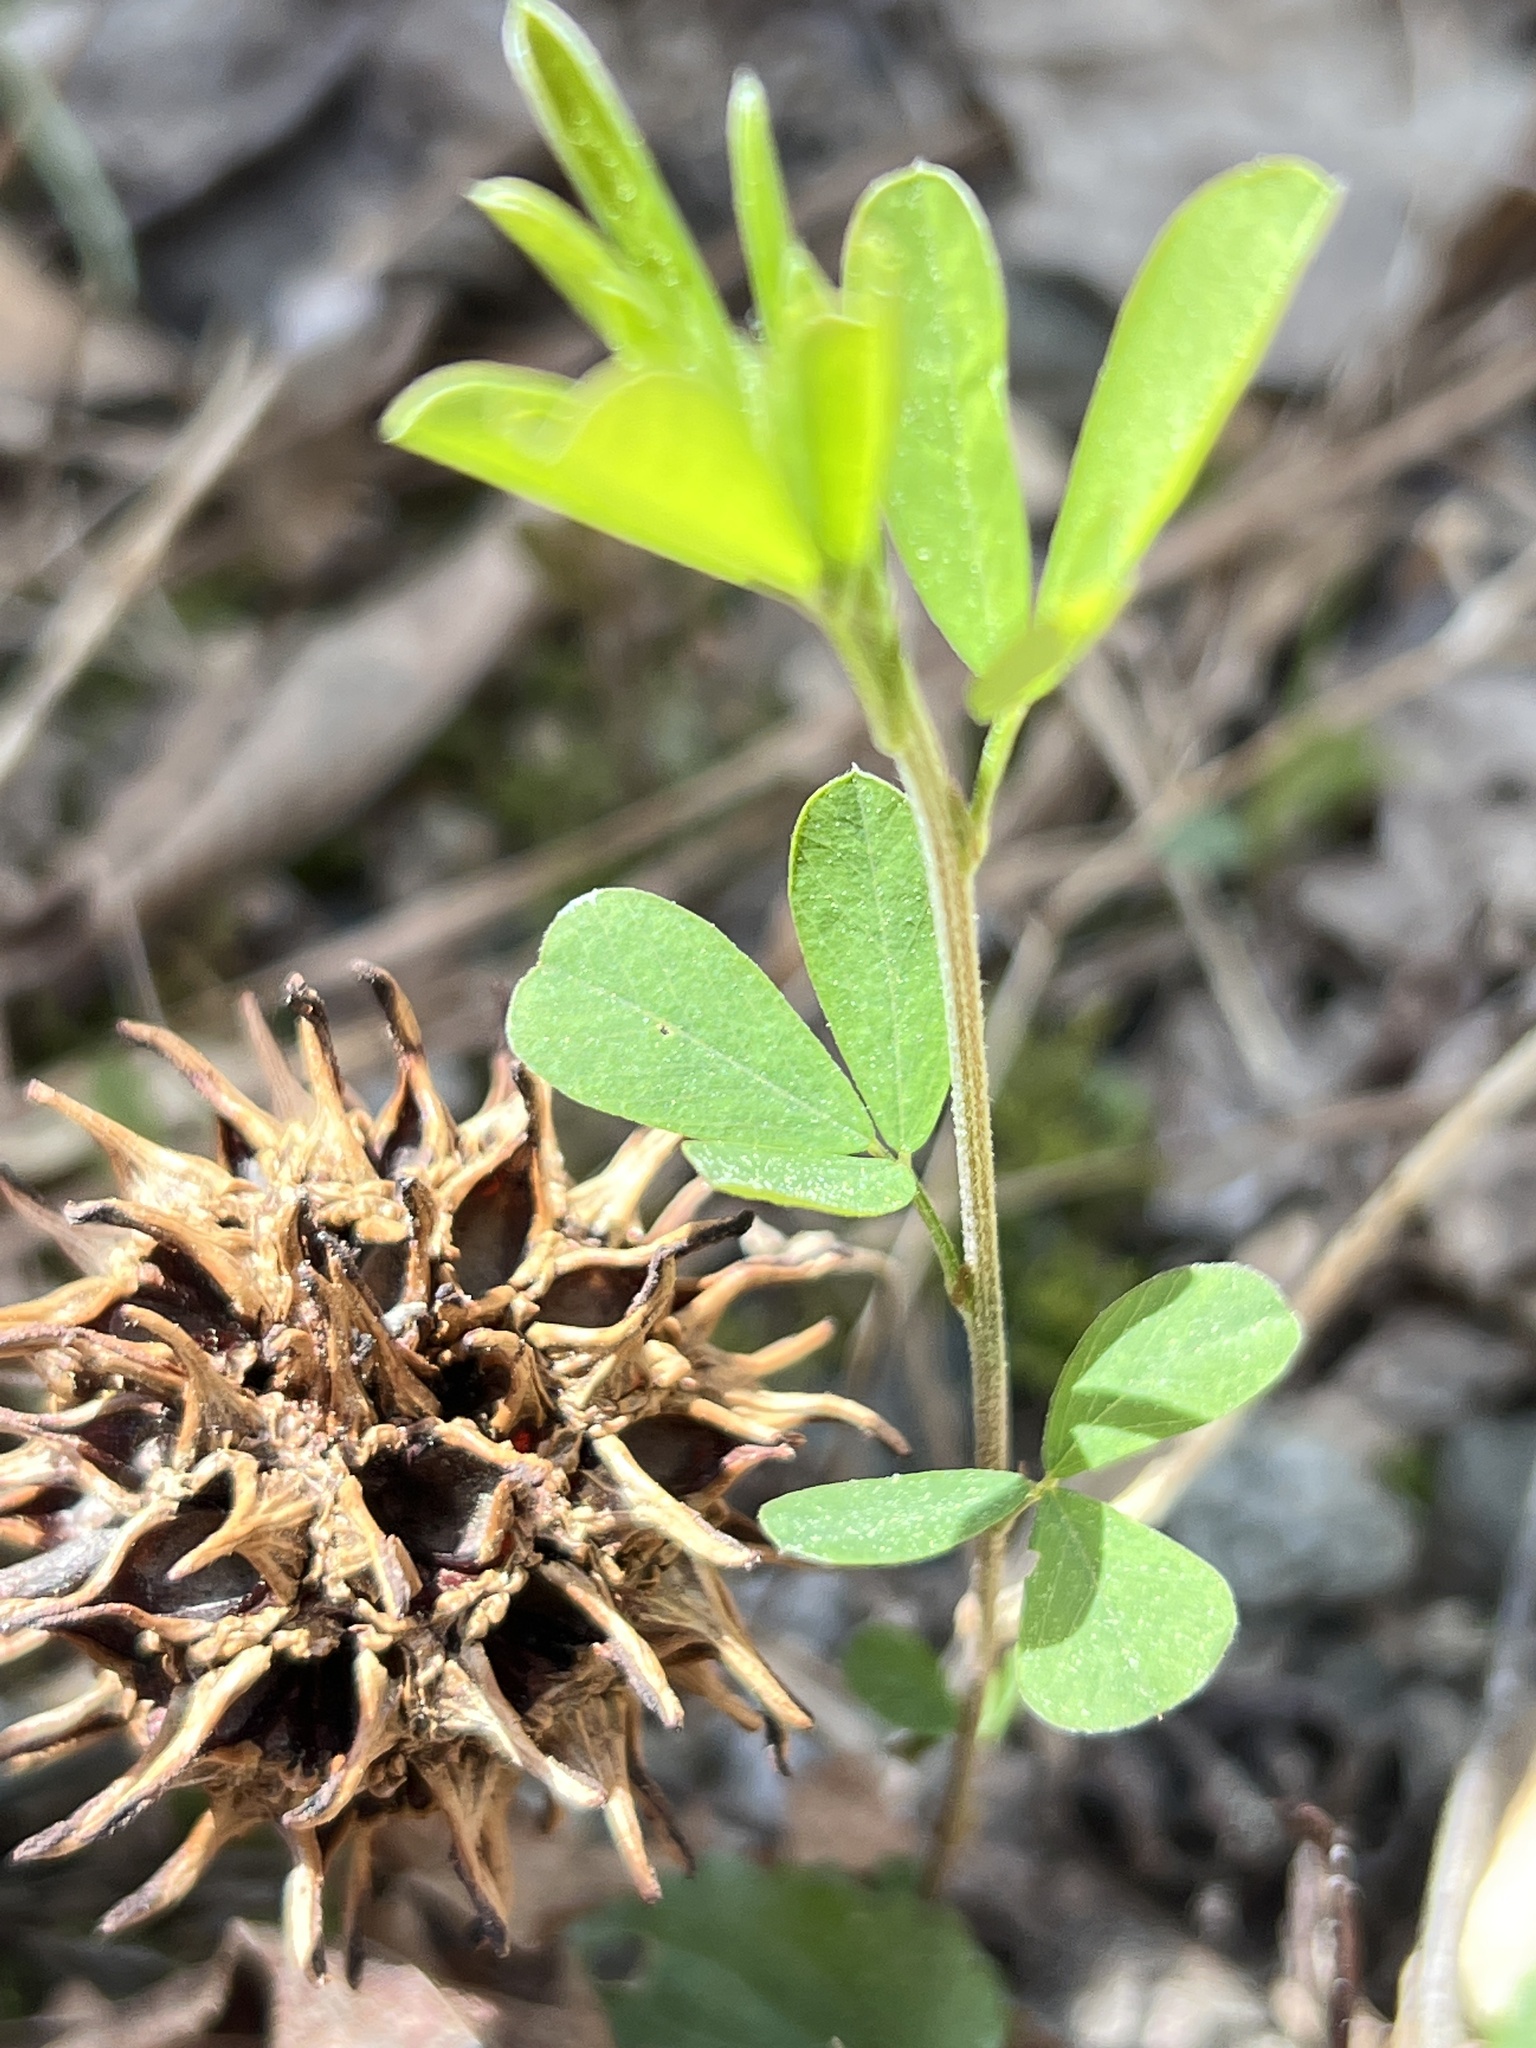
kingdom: Plantae
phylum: Tracheophyta
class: Magnoliopsida
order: Fabales
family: Fabaceae
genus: Lespedeza
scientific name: Lespedeza cuneata
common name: Chinese bush-clover
